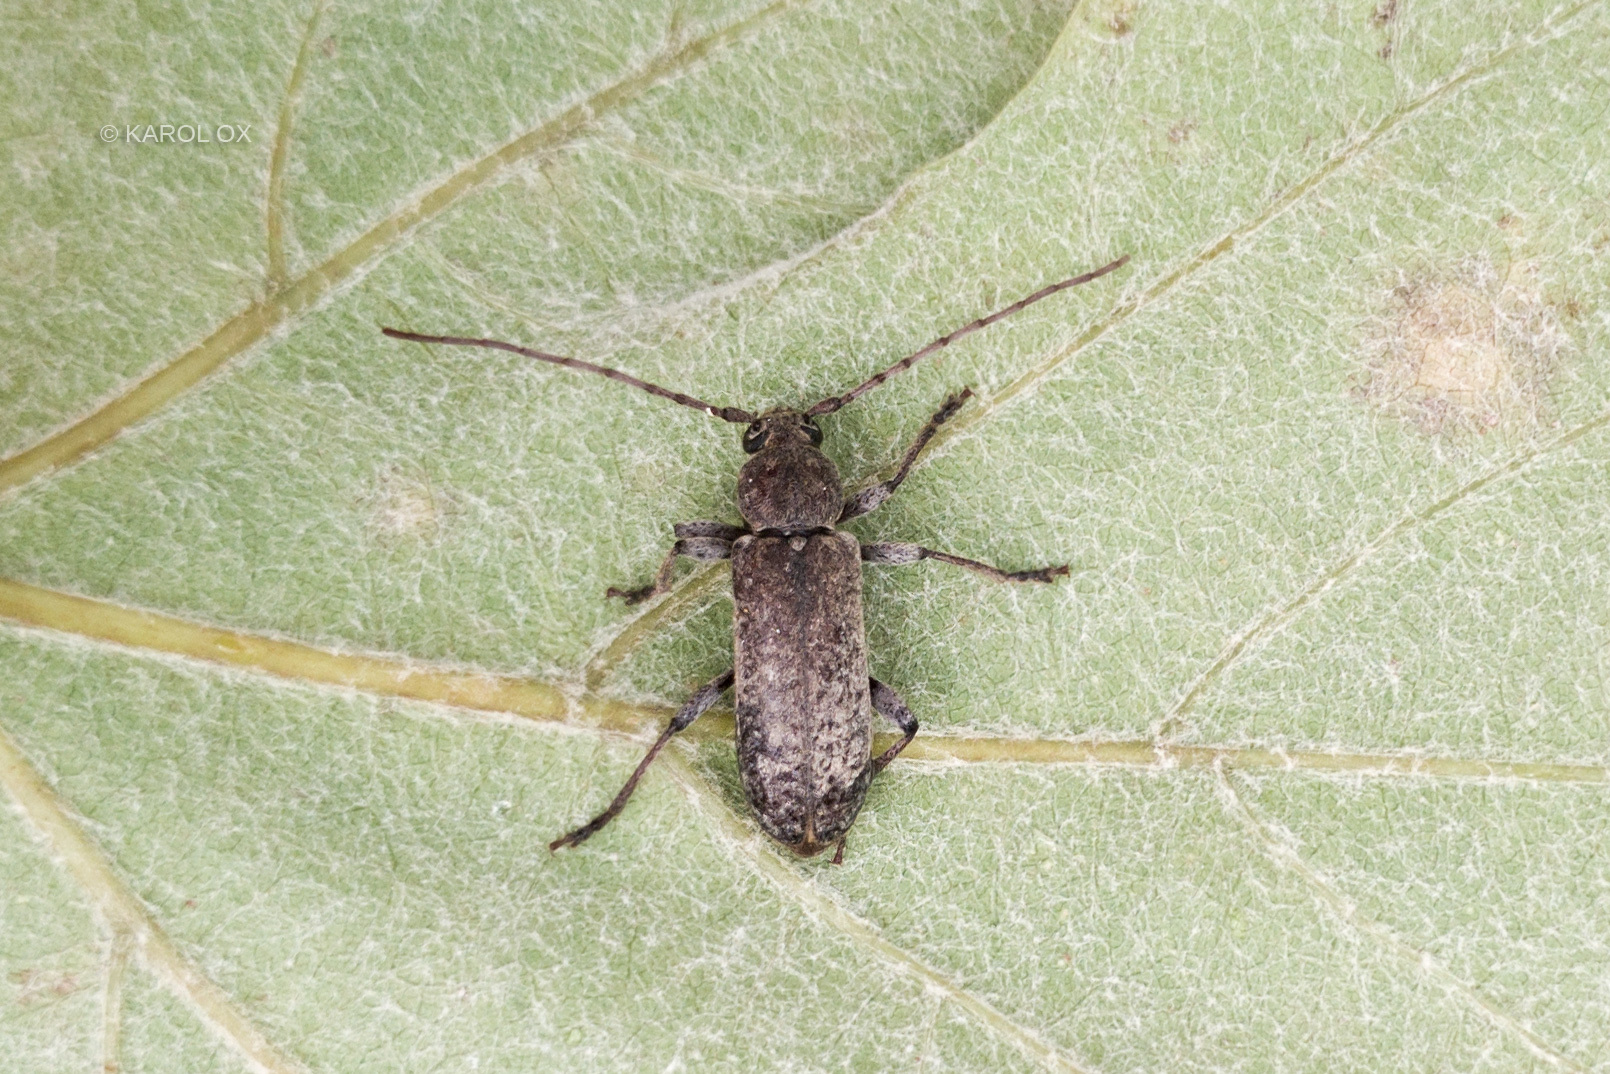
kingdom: Animalia
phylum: Arthropoda
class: Insecta
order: Coleoptera
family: Cerambycidae
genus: Trichoferus
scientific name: Trichoferus holosericeus
